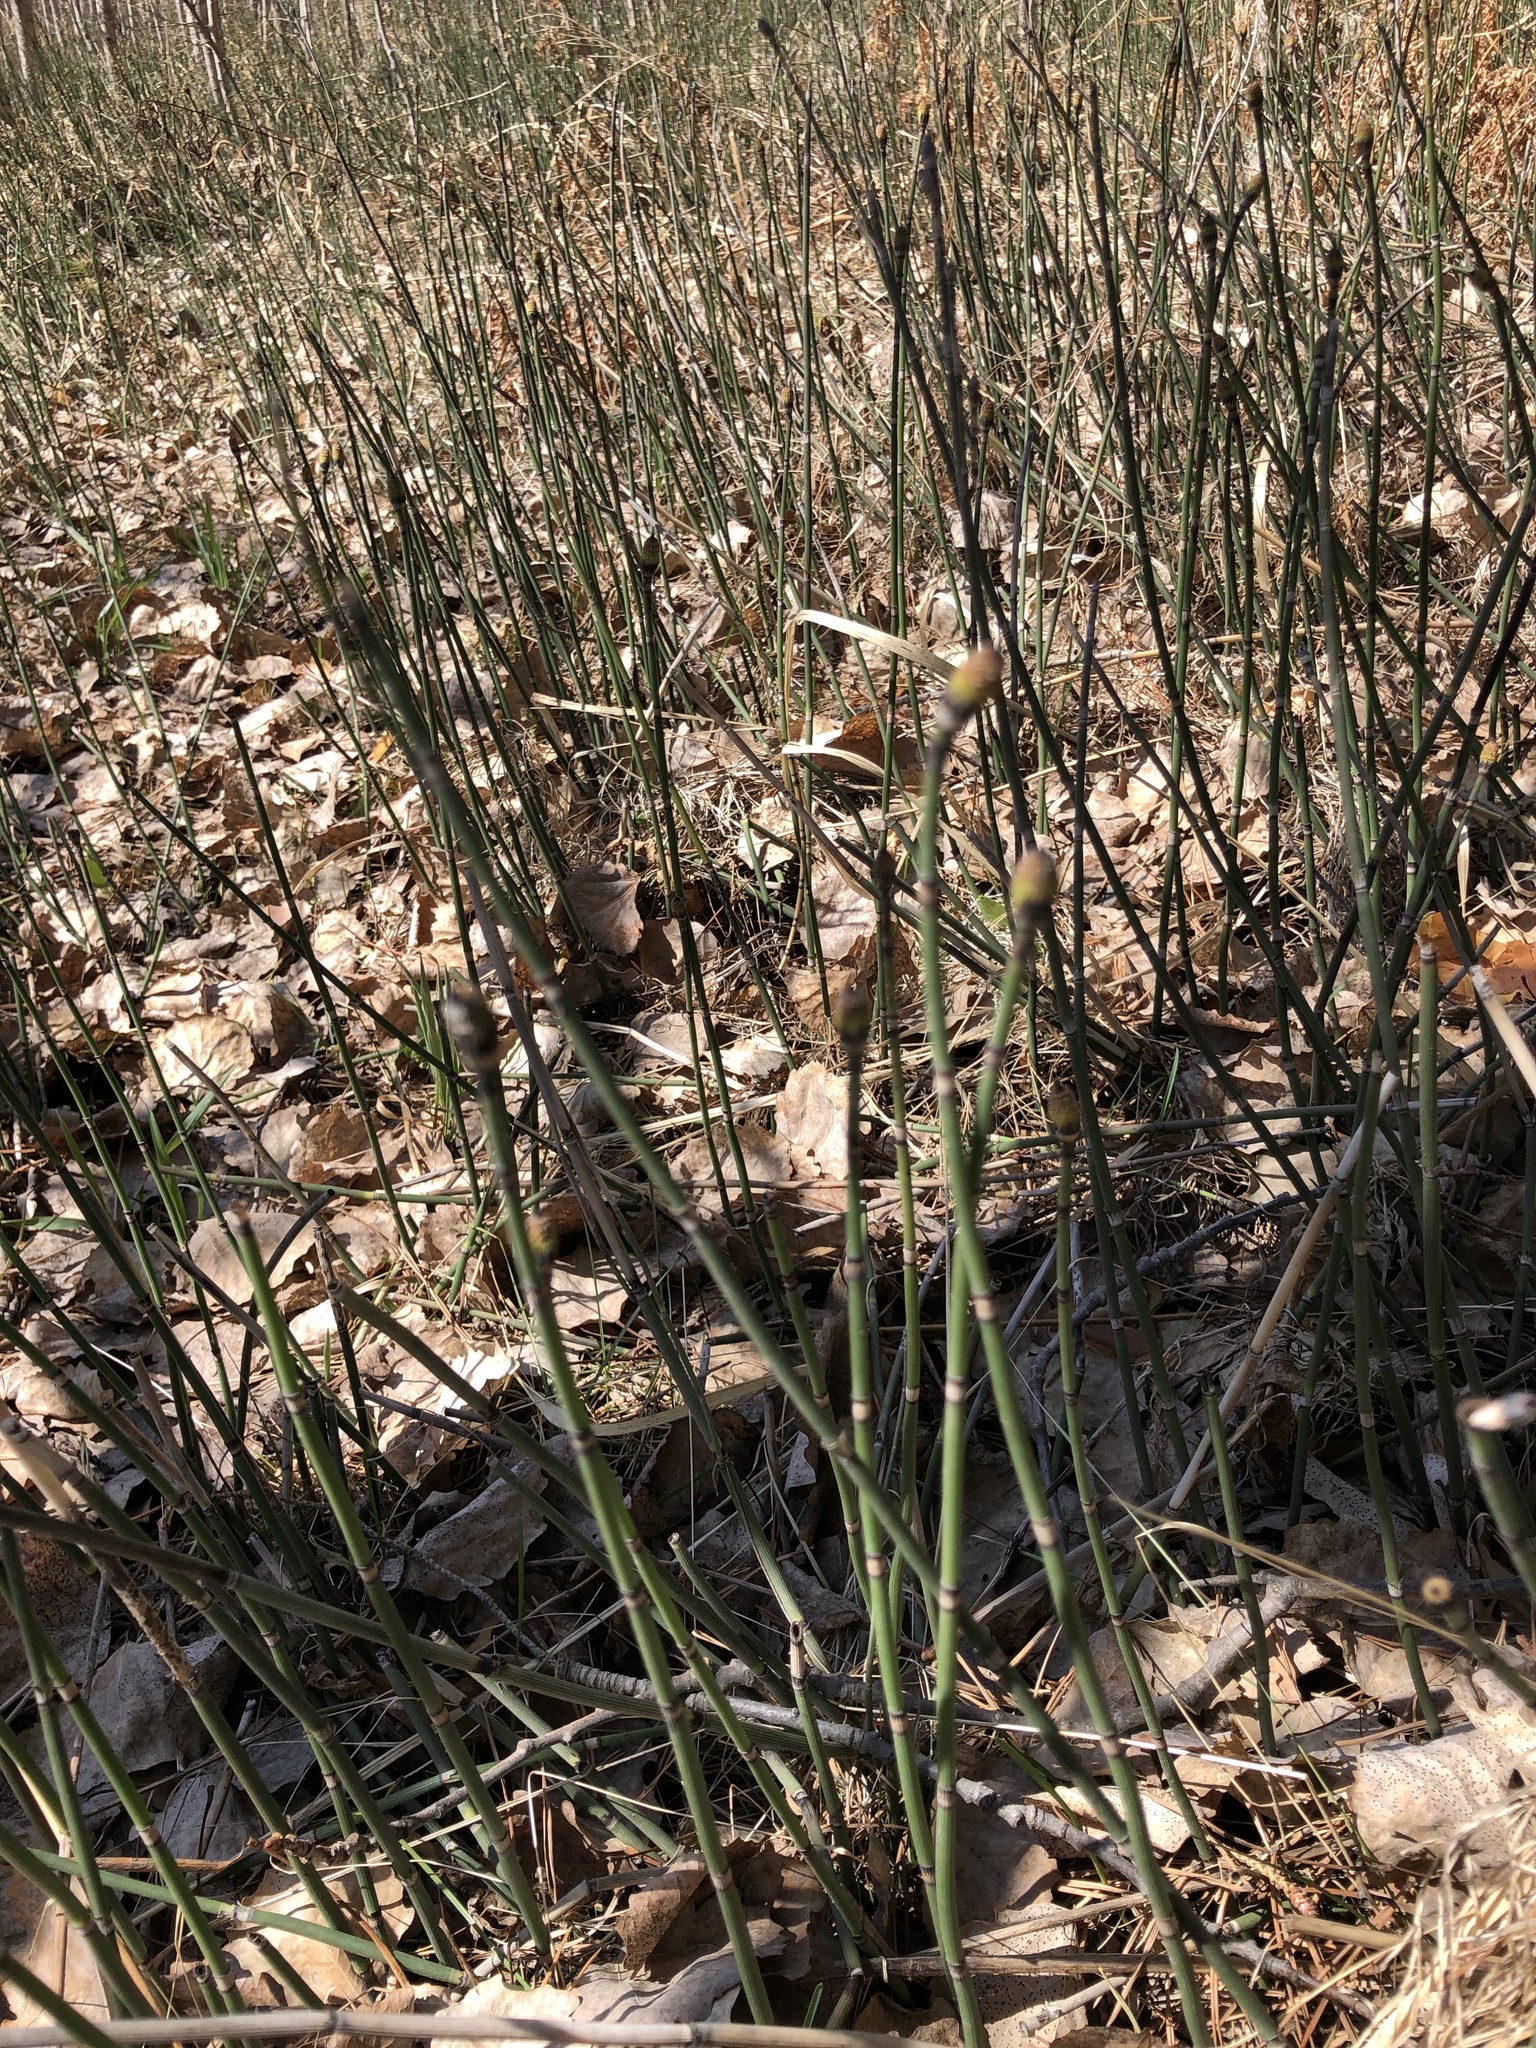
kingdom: Plantae
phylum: Tracheophyta
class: Polypodiopsida
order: Equisetales
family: Equisetaceae
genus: Equisetum
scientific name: Equisetum hyemale
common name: Rough horsetail
